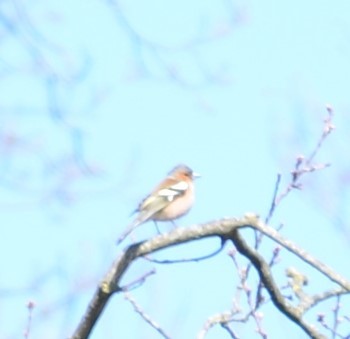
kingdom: Animalia
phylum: Chordata
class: Aves
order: Passeriformes
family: Fringillidae
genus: Fringilla
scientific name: Fringilla coelebs
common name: Common chaffinch
